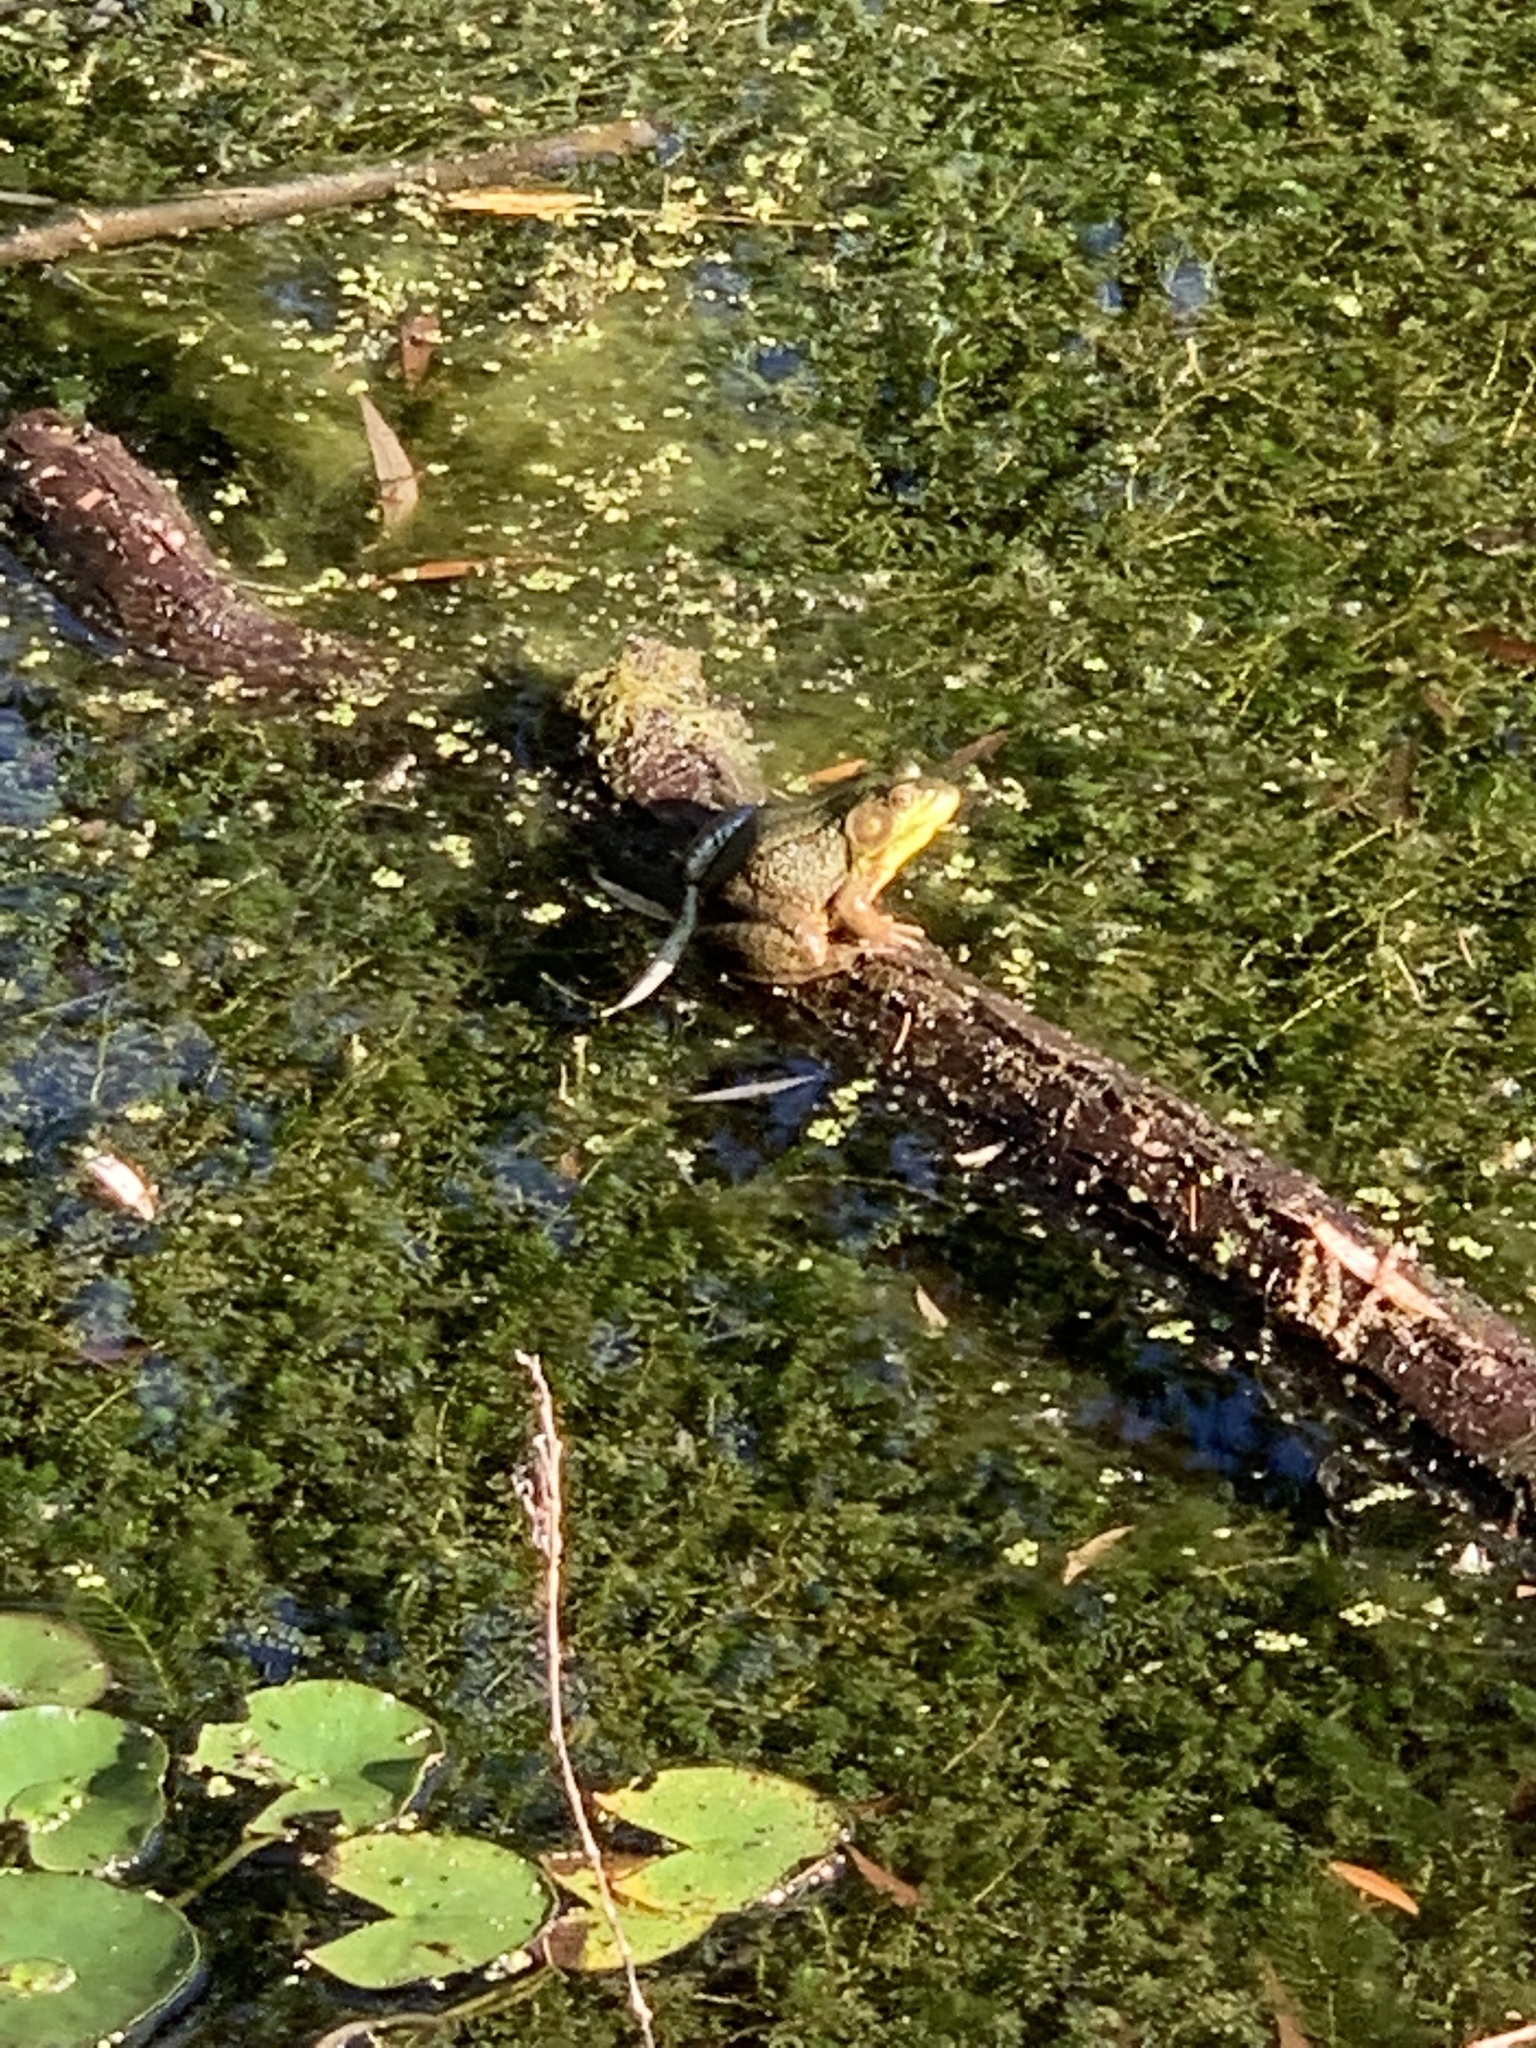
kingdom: Animalia
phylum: Chordata
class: Amphibia
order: Anura
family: Ranidae
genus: Lithobates
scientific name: Lithobates clamitans
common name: Green frog
